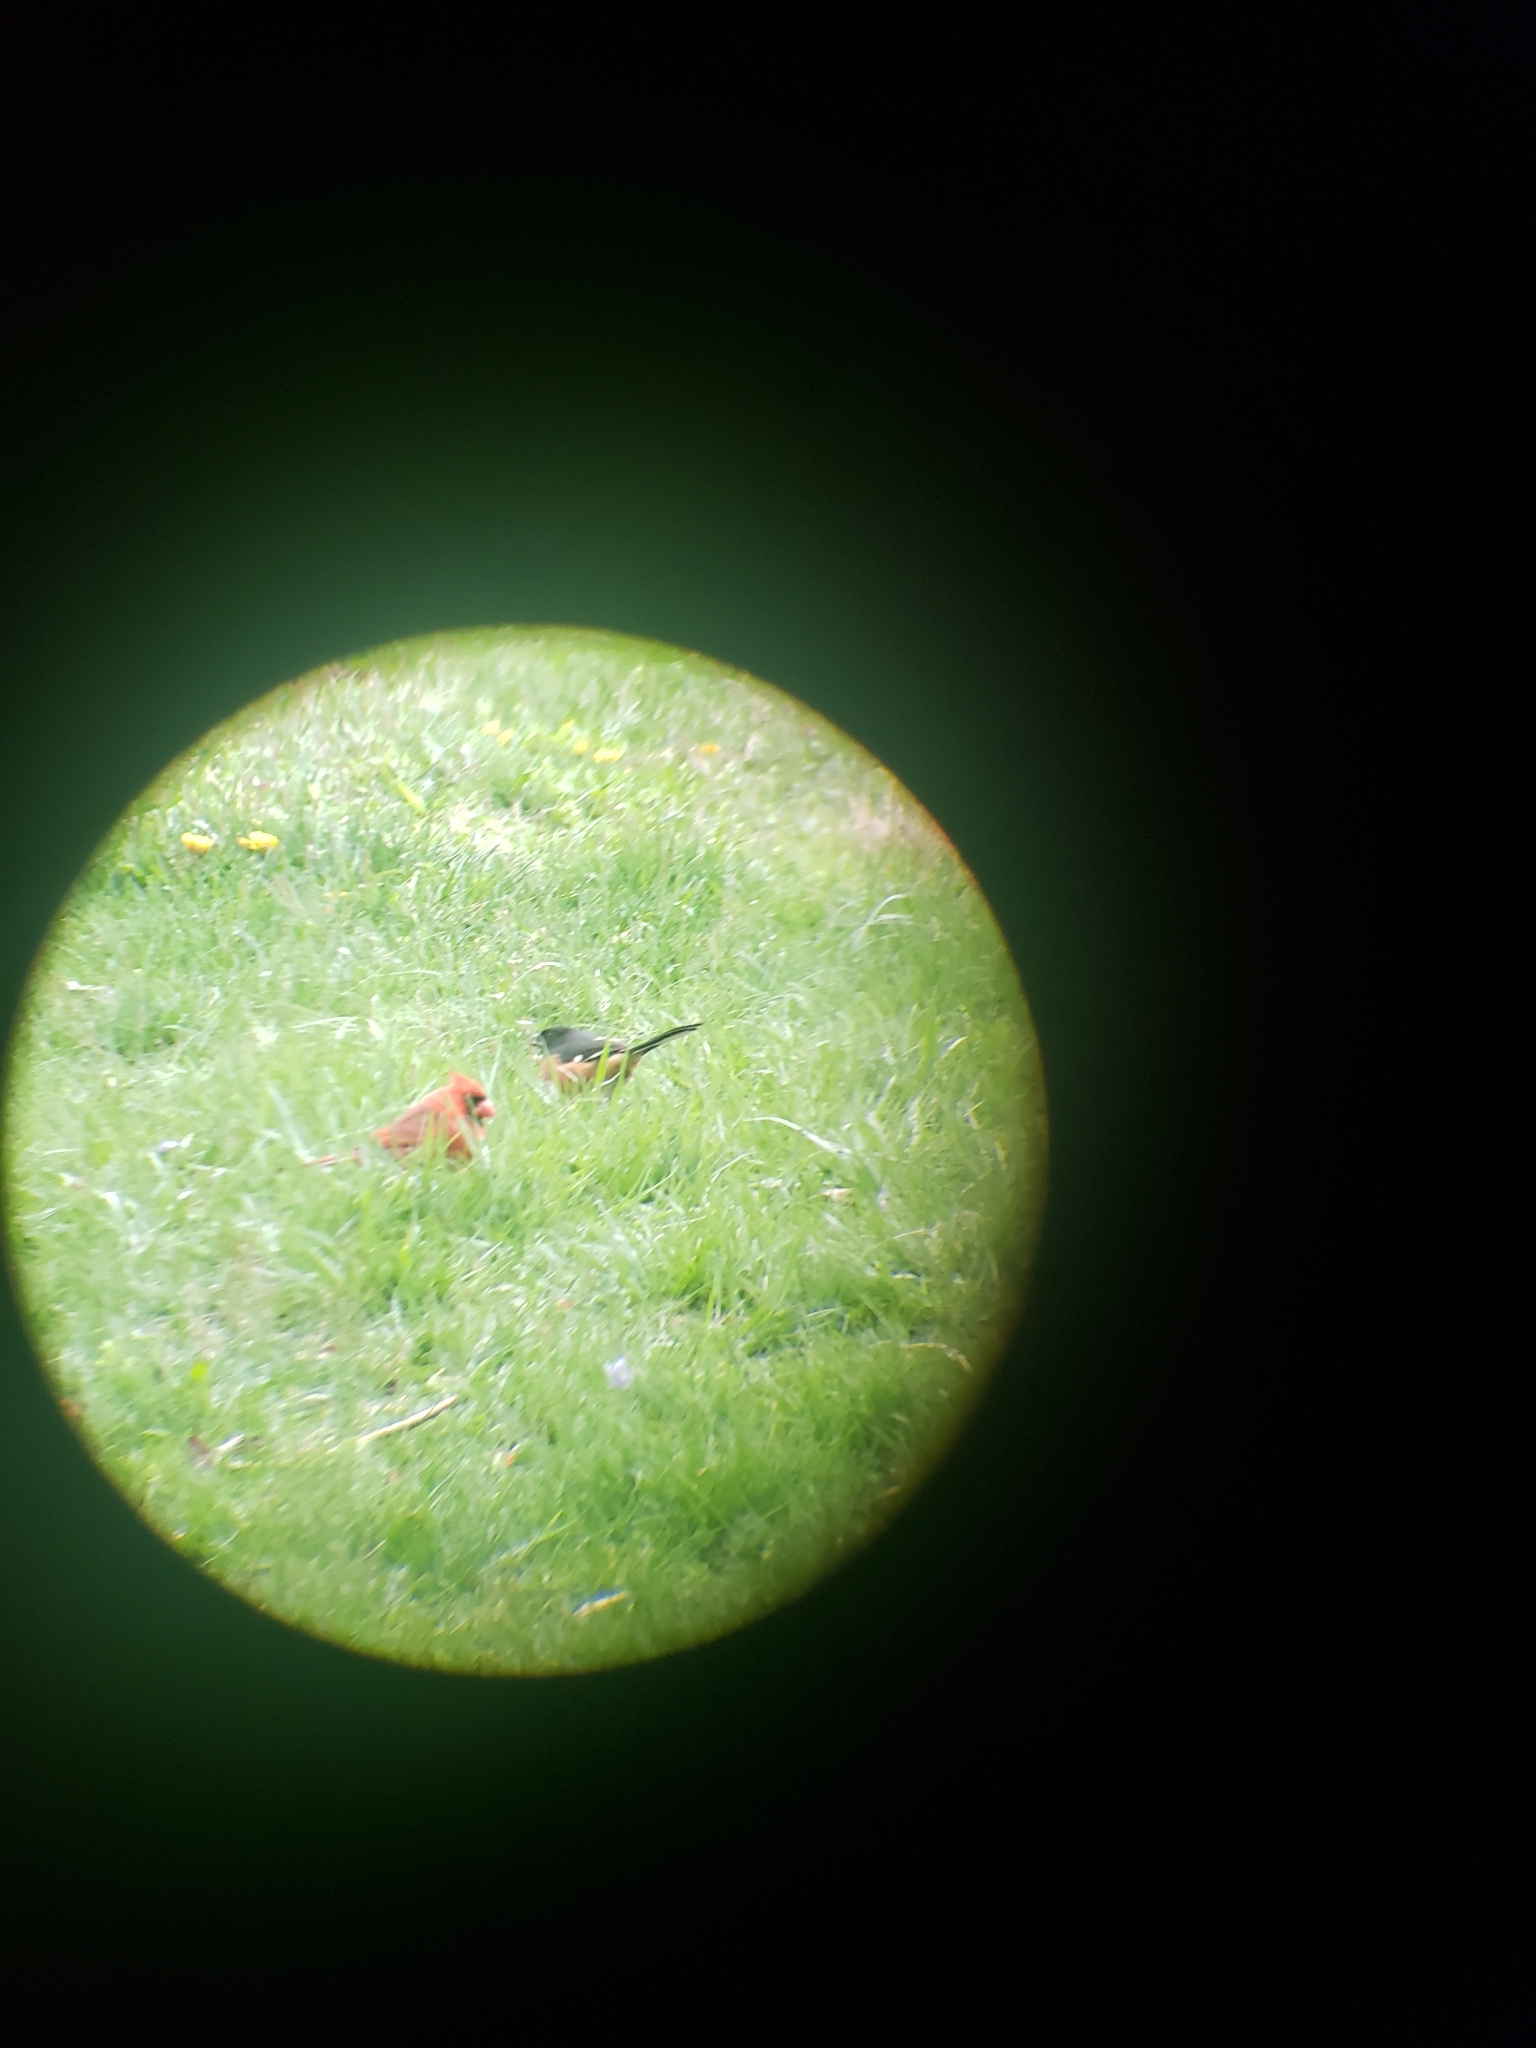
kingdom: Animalia
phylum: Chordata
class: Aves
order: Passeriformes
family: Cardinalidae
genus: Cardinalis
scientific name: Cardinalis cardinalis
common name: Northern cardinal
